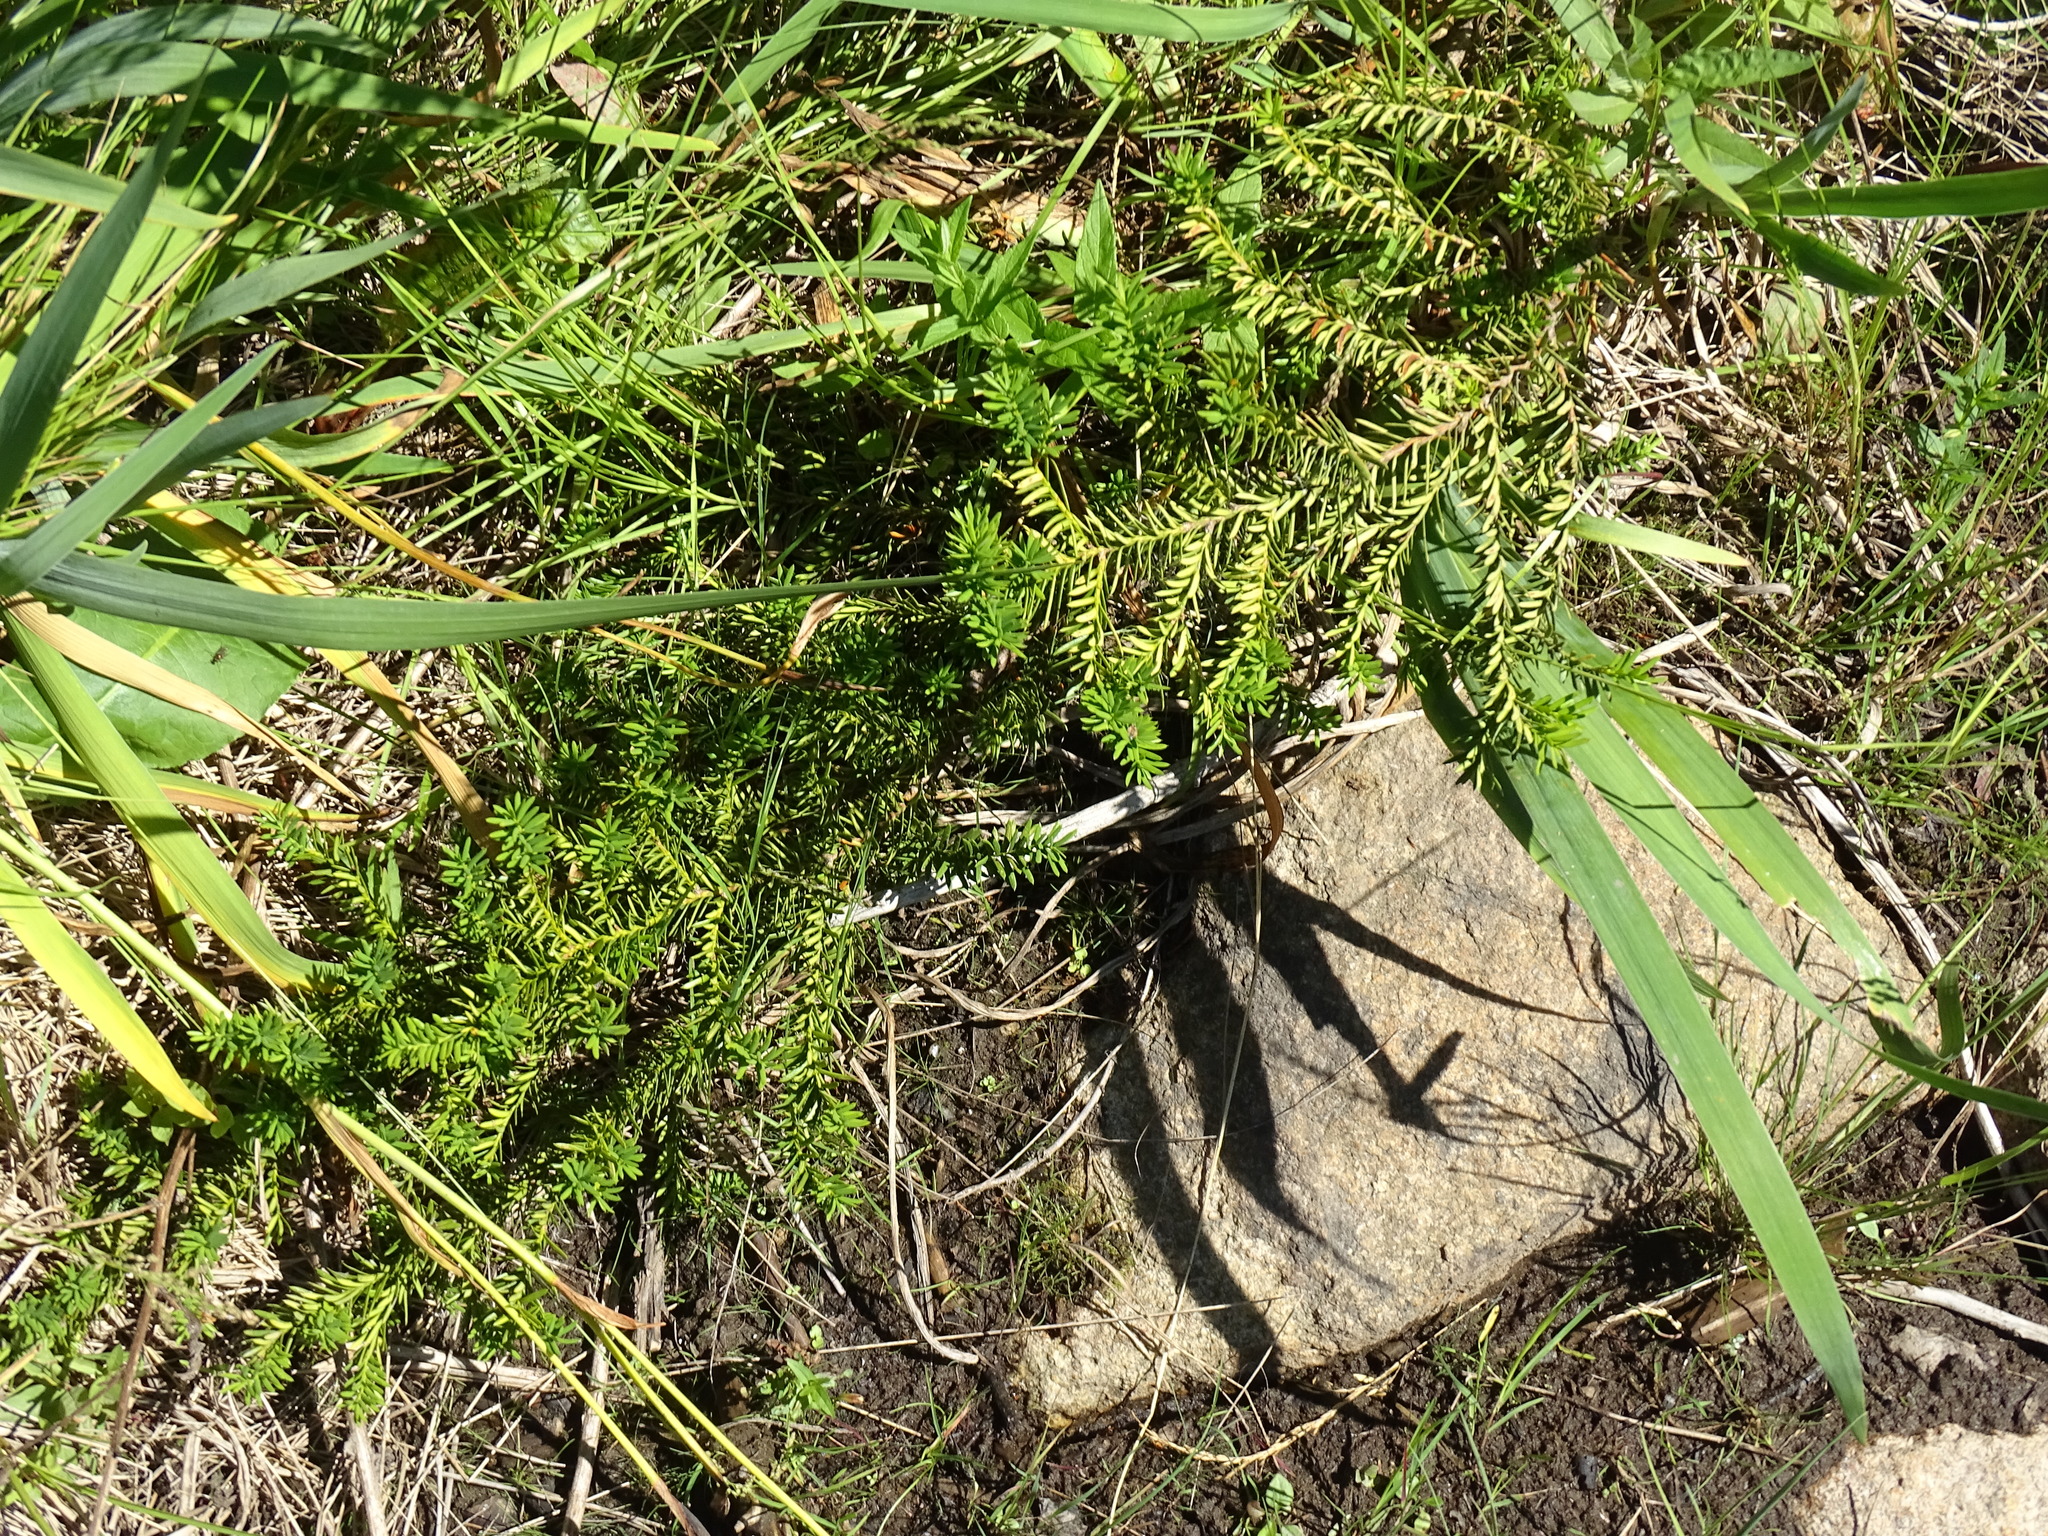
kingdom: Plantae
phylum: Tracheophyta
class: Pinopsida
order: Pinales
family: Taxaceae
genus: Taxus
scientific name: Taxus canadensis
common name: American yew
